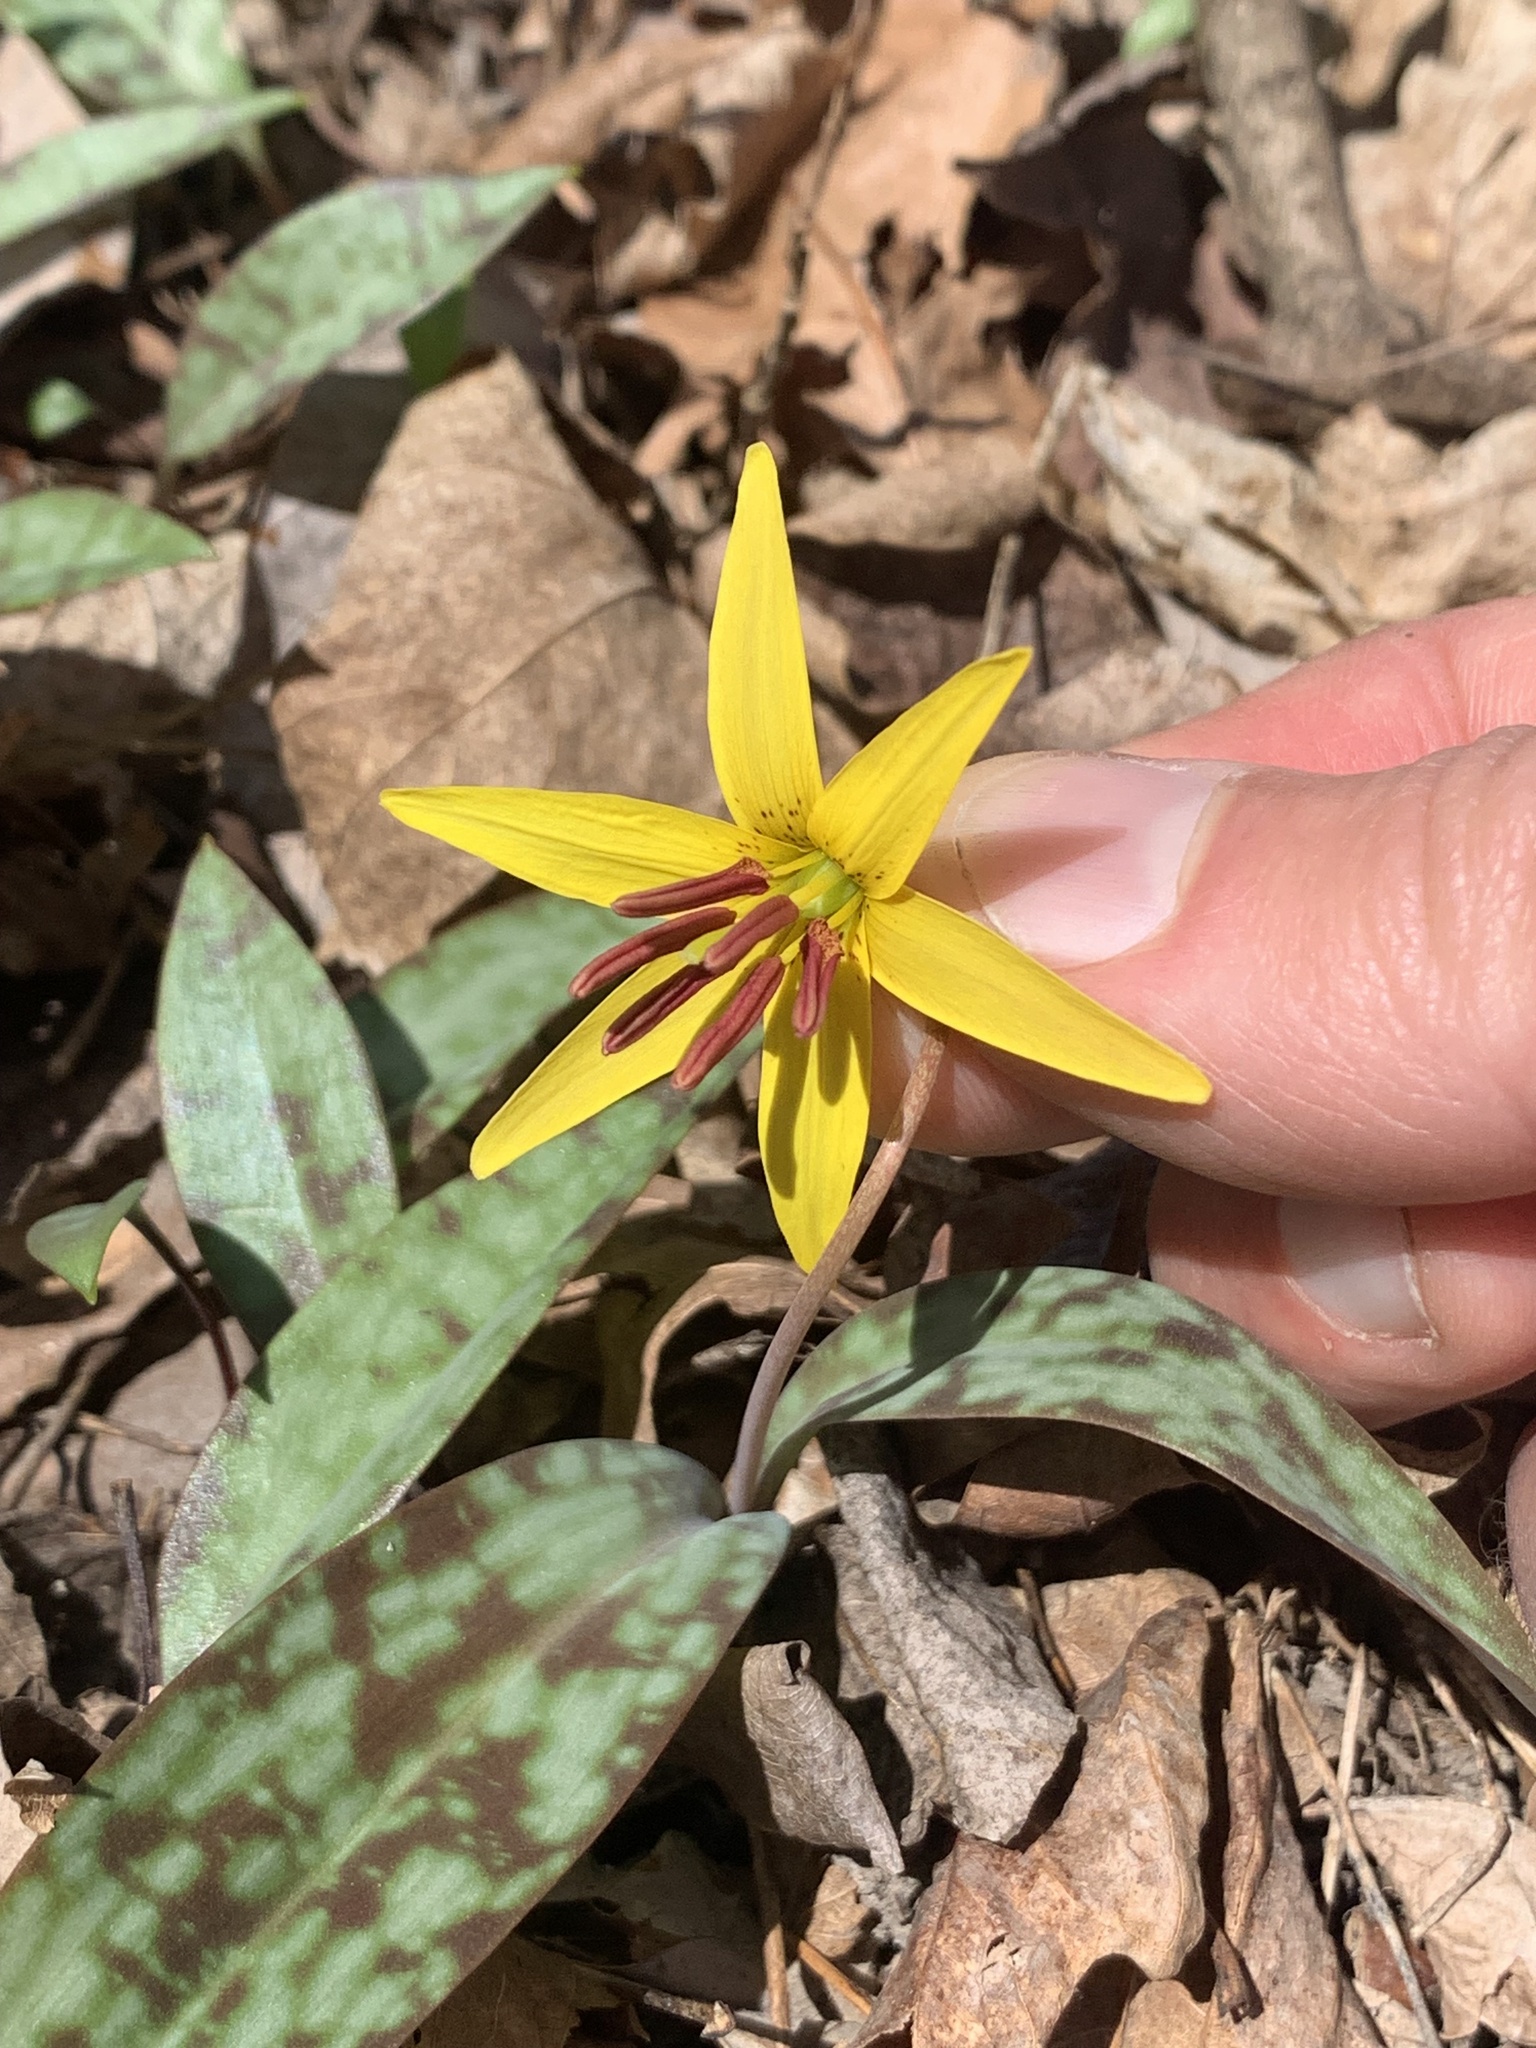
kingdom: Plantae
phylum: Tracheophyta
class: Liliopsida
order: Liliales
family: Liliaceae
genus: Erythronium
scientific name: Erythronium americanum
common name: Yellow adder's-tongue
